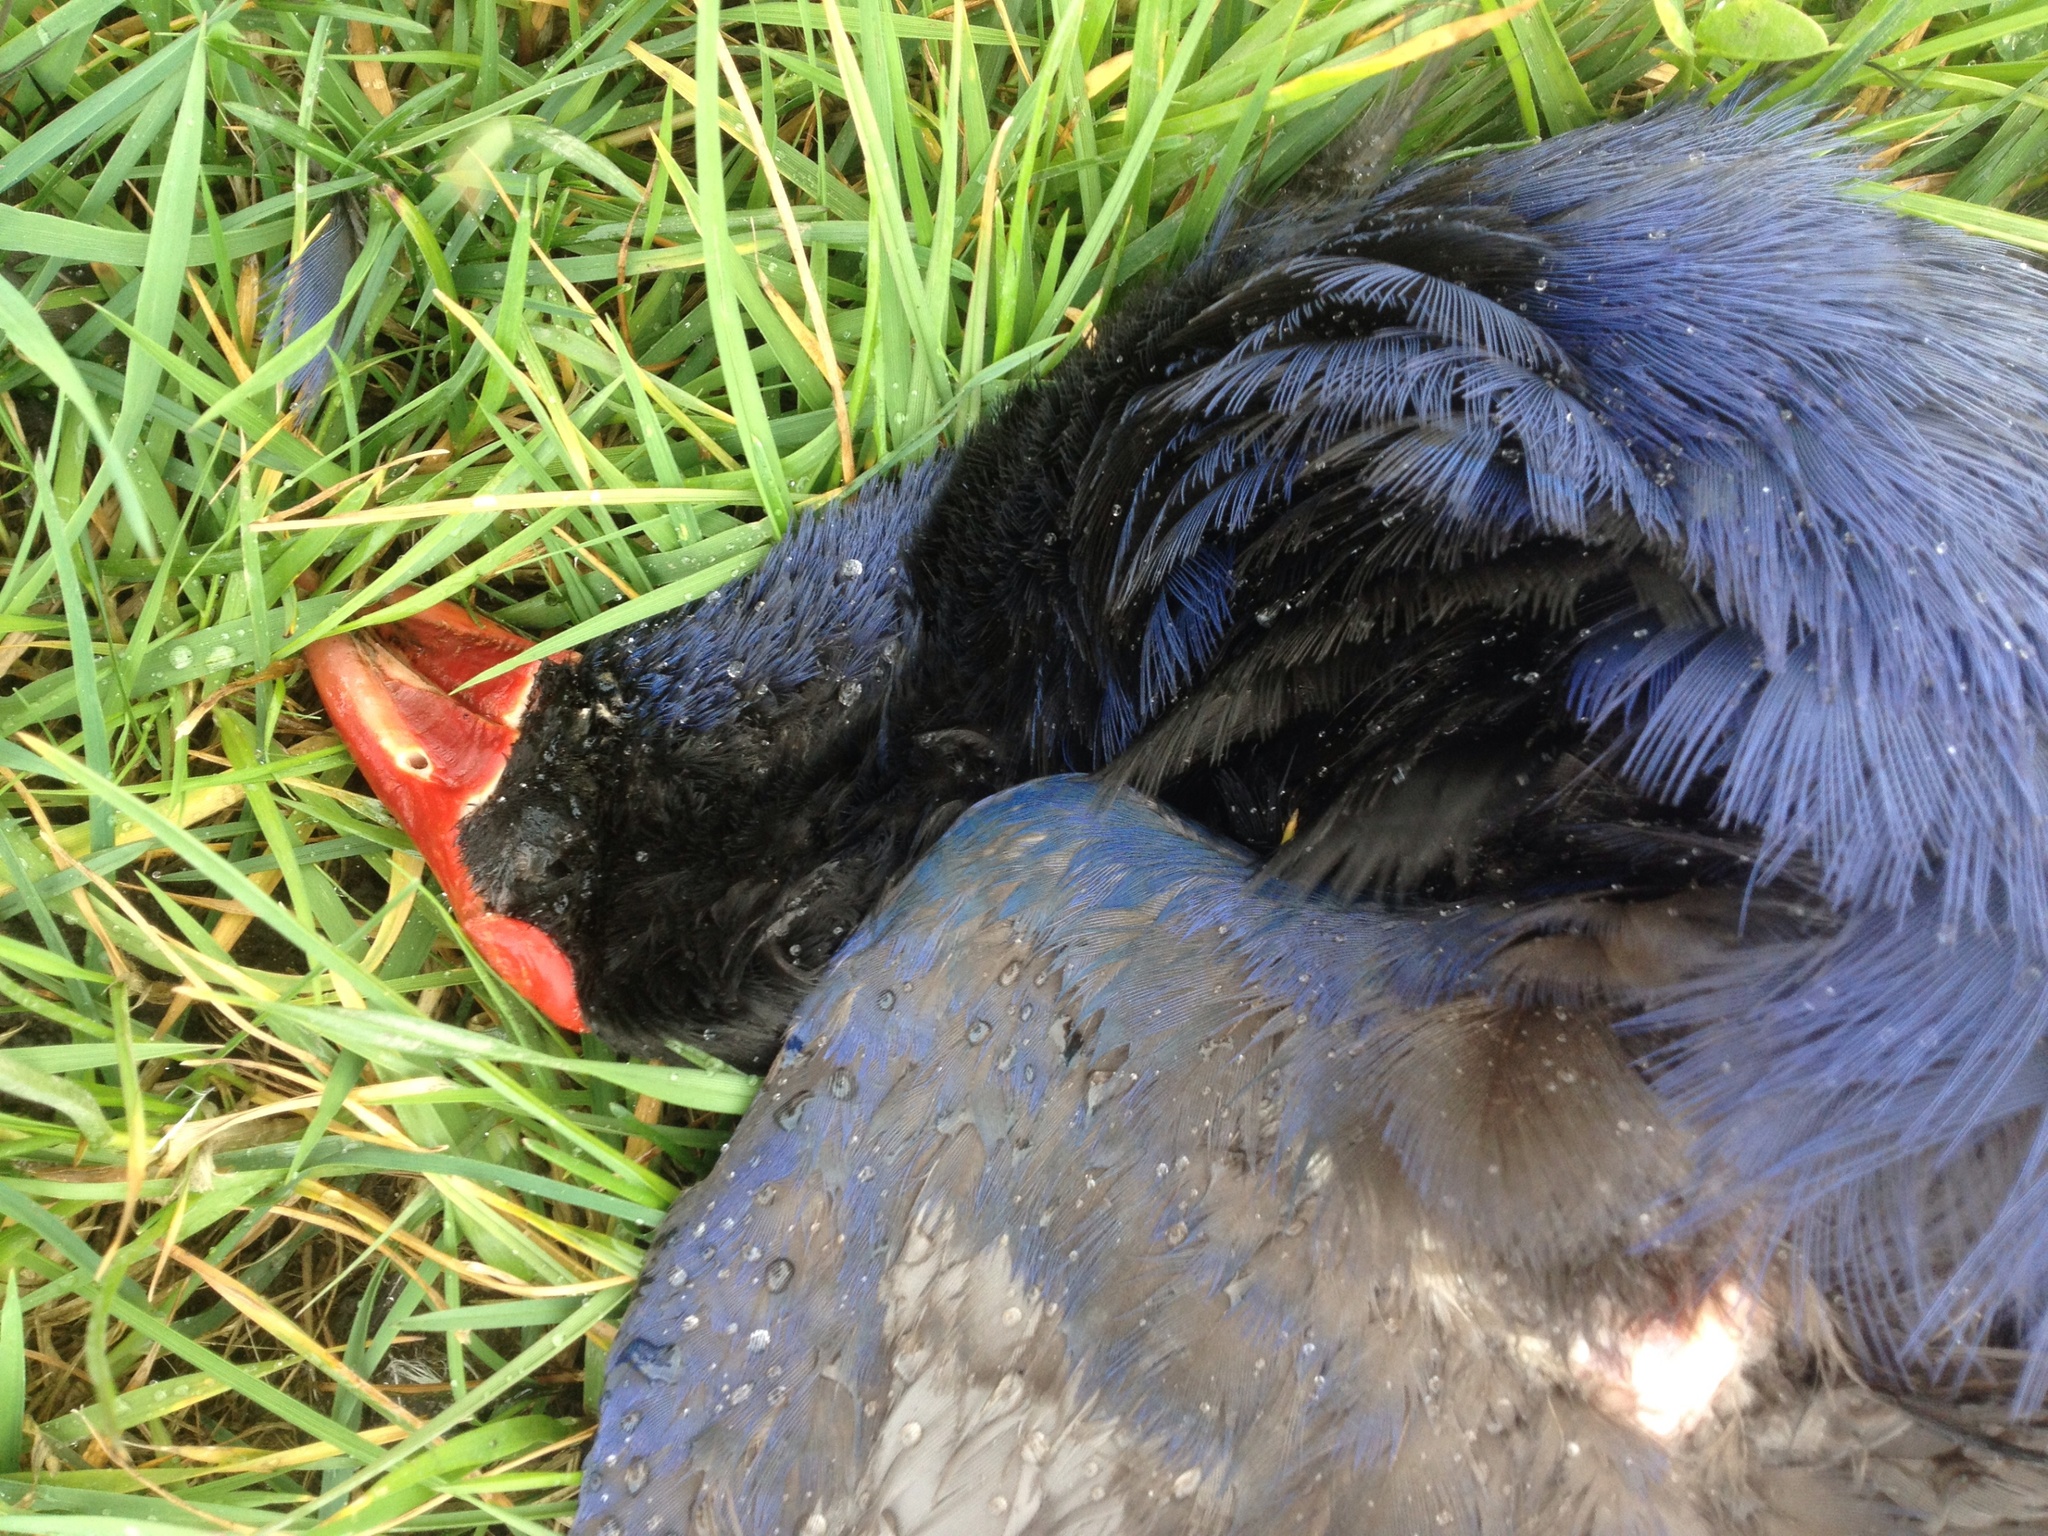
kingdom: Animalia
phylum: Chordata
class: Aves
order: Gruiformes
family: Rallidae
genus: Porphyrio
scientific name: Porphyrio melanotus
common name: Australasian swamphen
